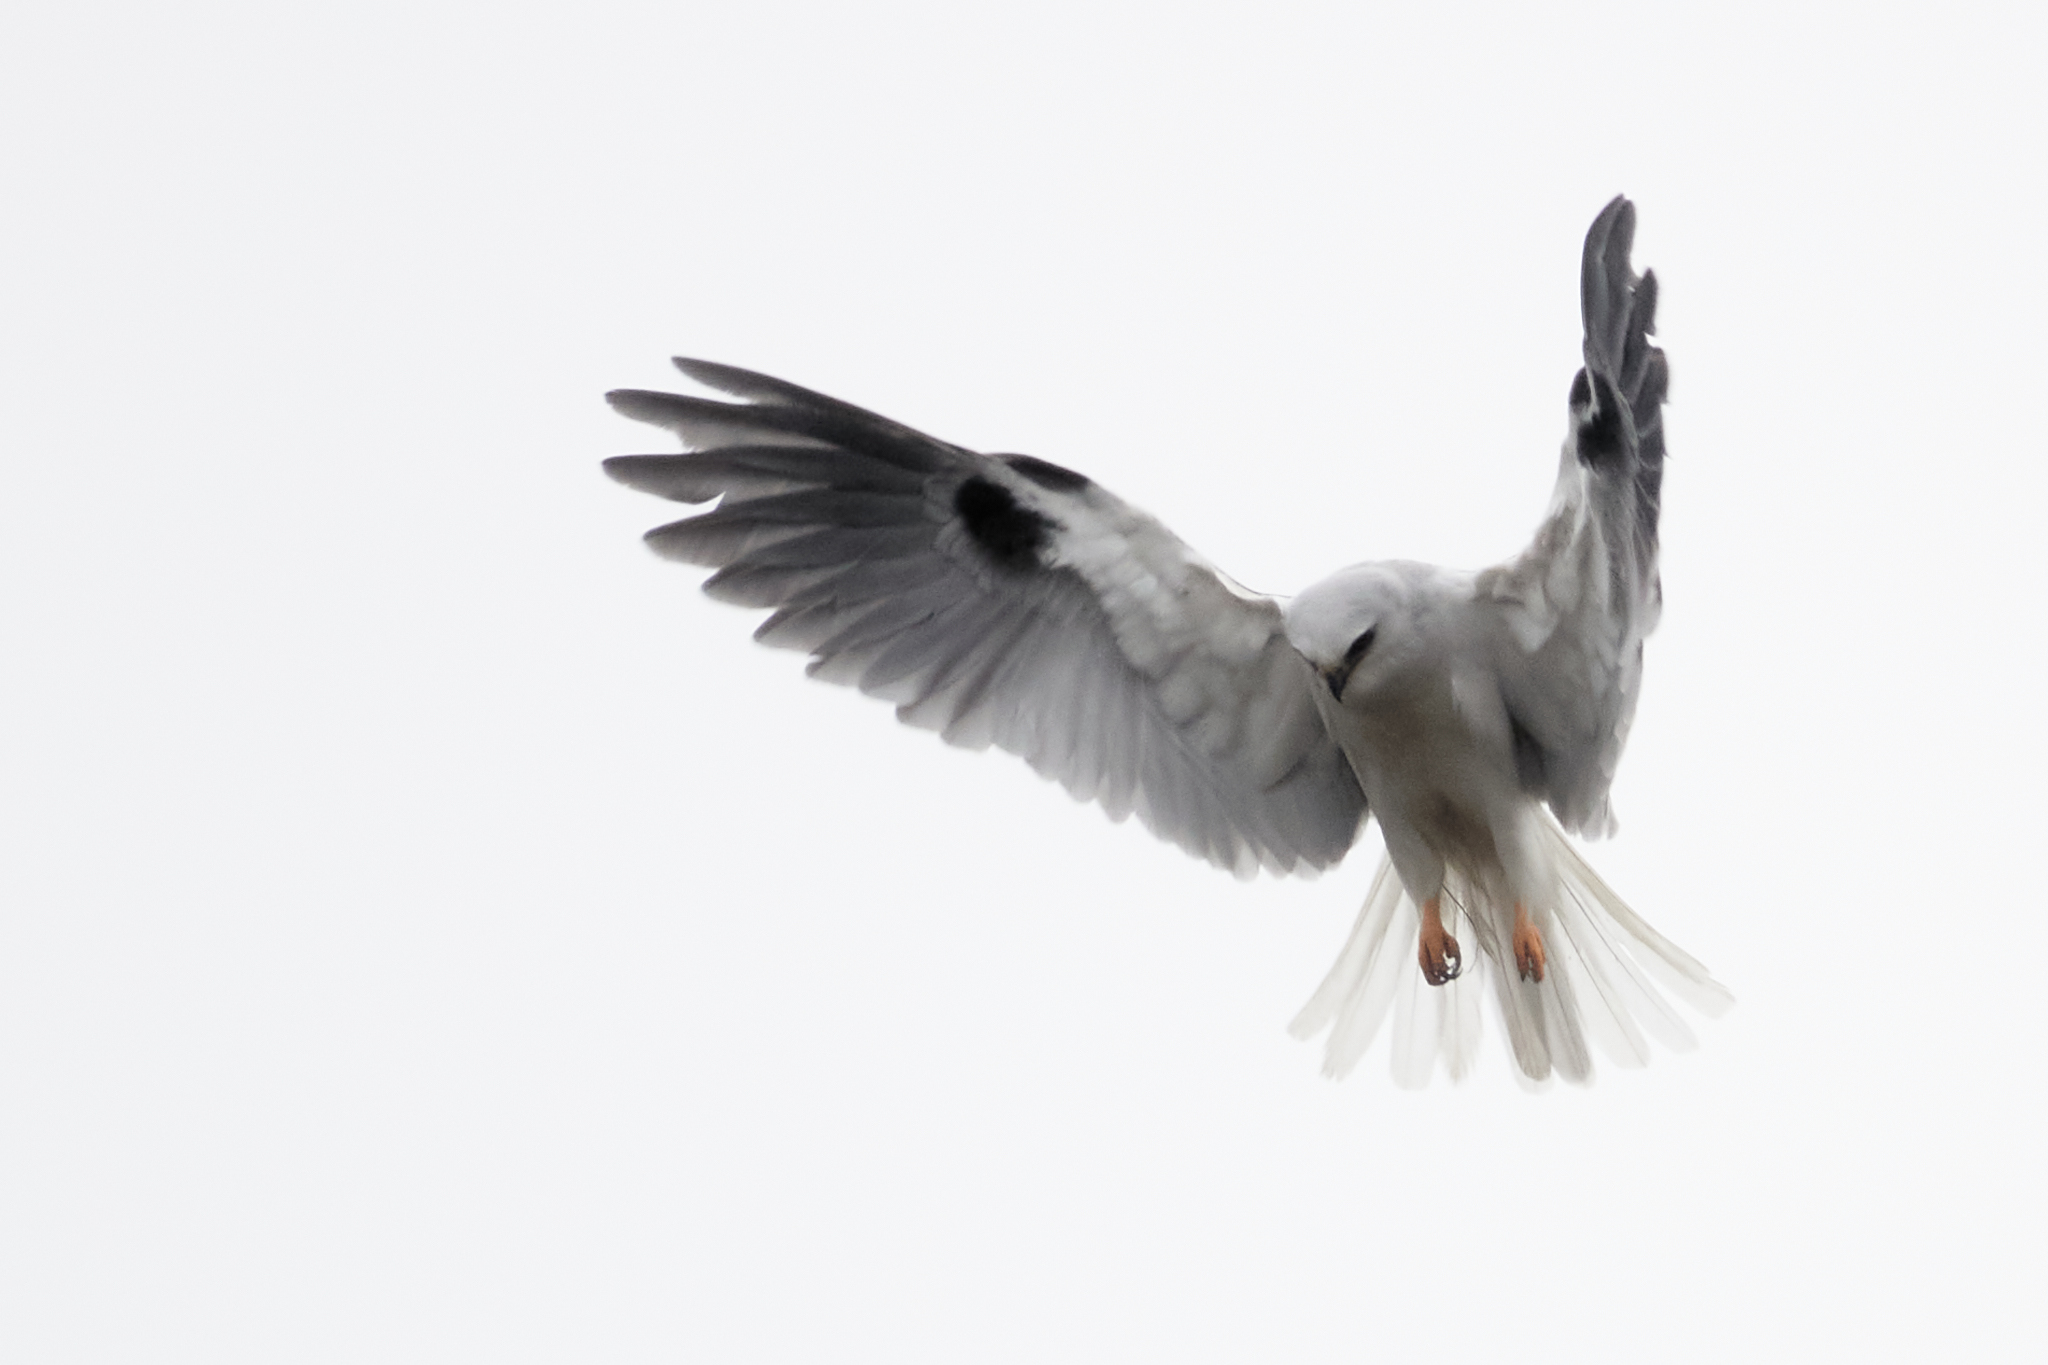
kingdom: Animalia
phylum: Chordata
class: Aves
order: Accipitriformes
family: Accipitridae
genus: Elanus
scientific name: Elanus leucurus
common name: White-tailed kite
